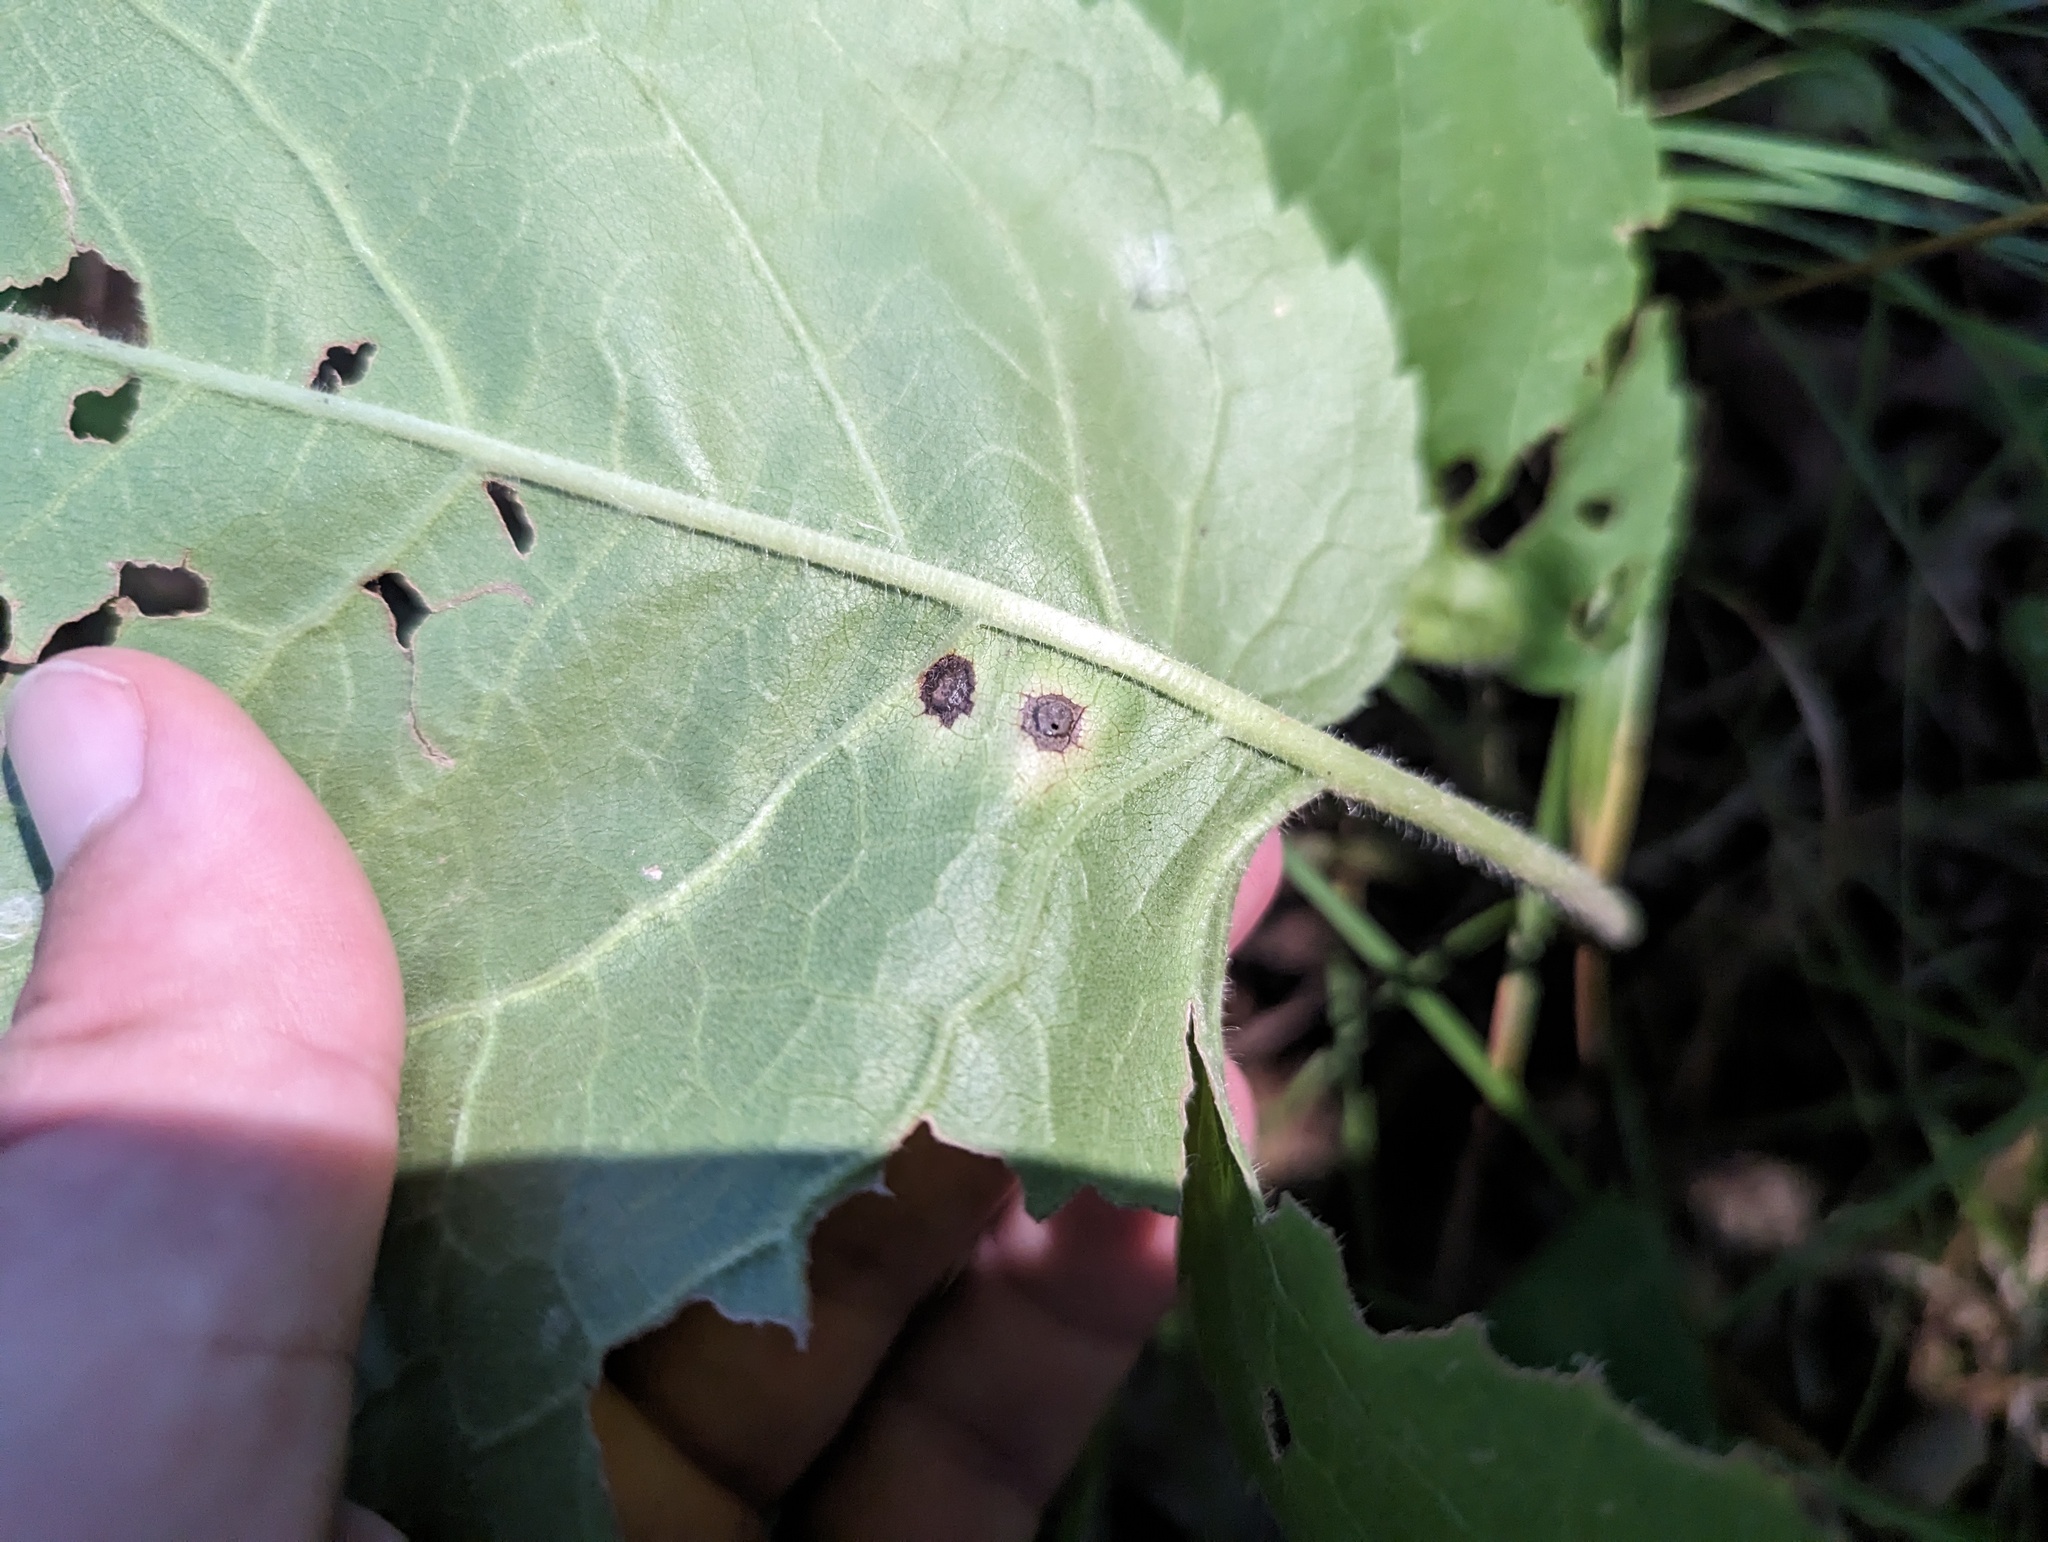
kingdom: Animalia
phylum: Arthropoda
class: Insecta
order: Diptera
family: Cecidomyiidae
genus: Asteromyia
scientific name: Asteromyia clarkei
